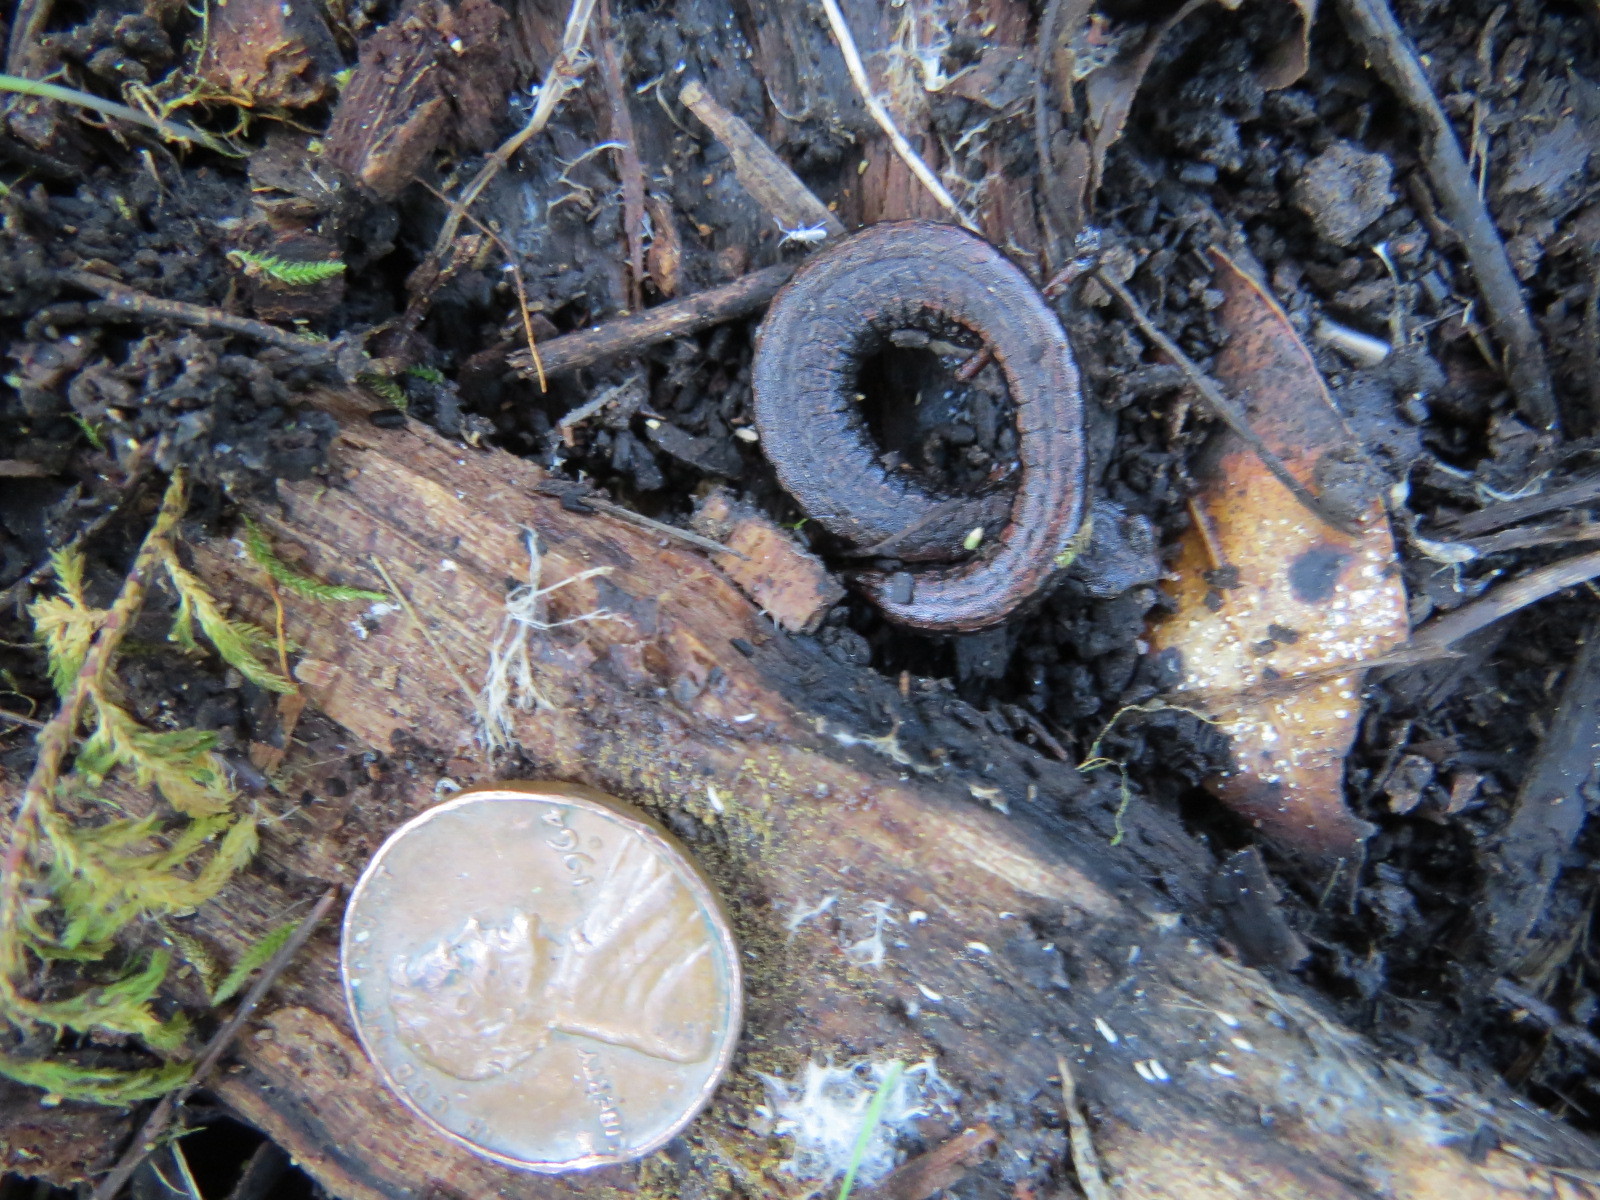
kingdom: Animalia
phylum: Chordata
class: Amphibia
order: Caudata
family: Plethodontidae
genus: Batrachoseps
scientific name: Batrachoseps attenuatus
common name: California slender salamander
